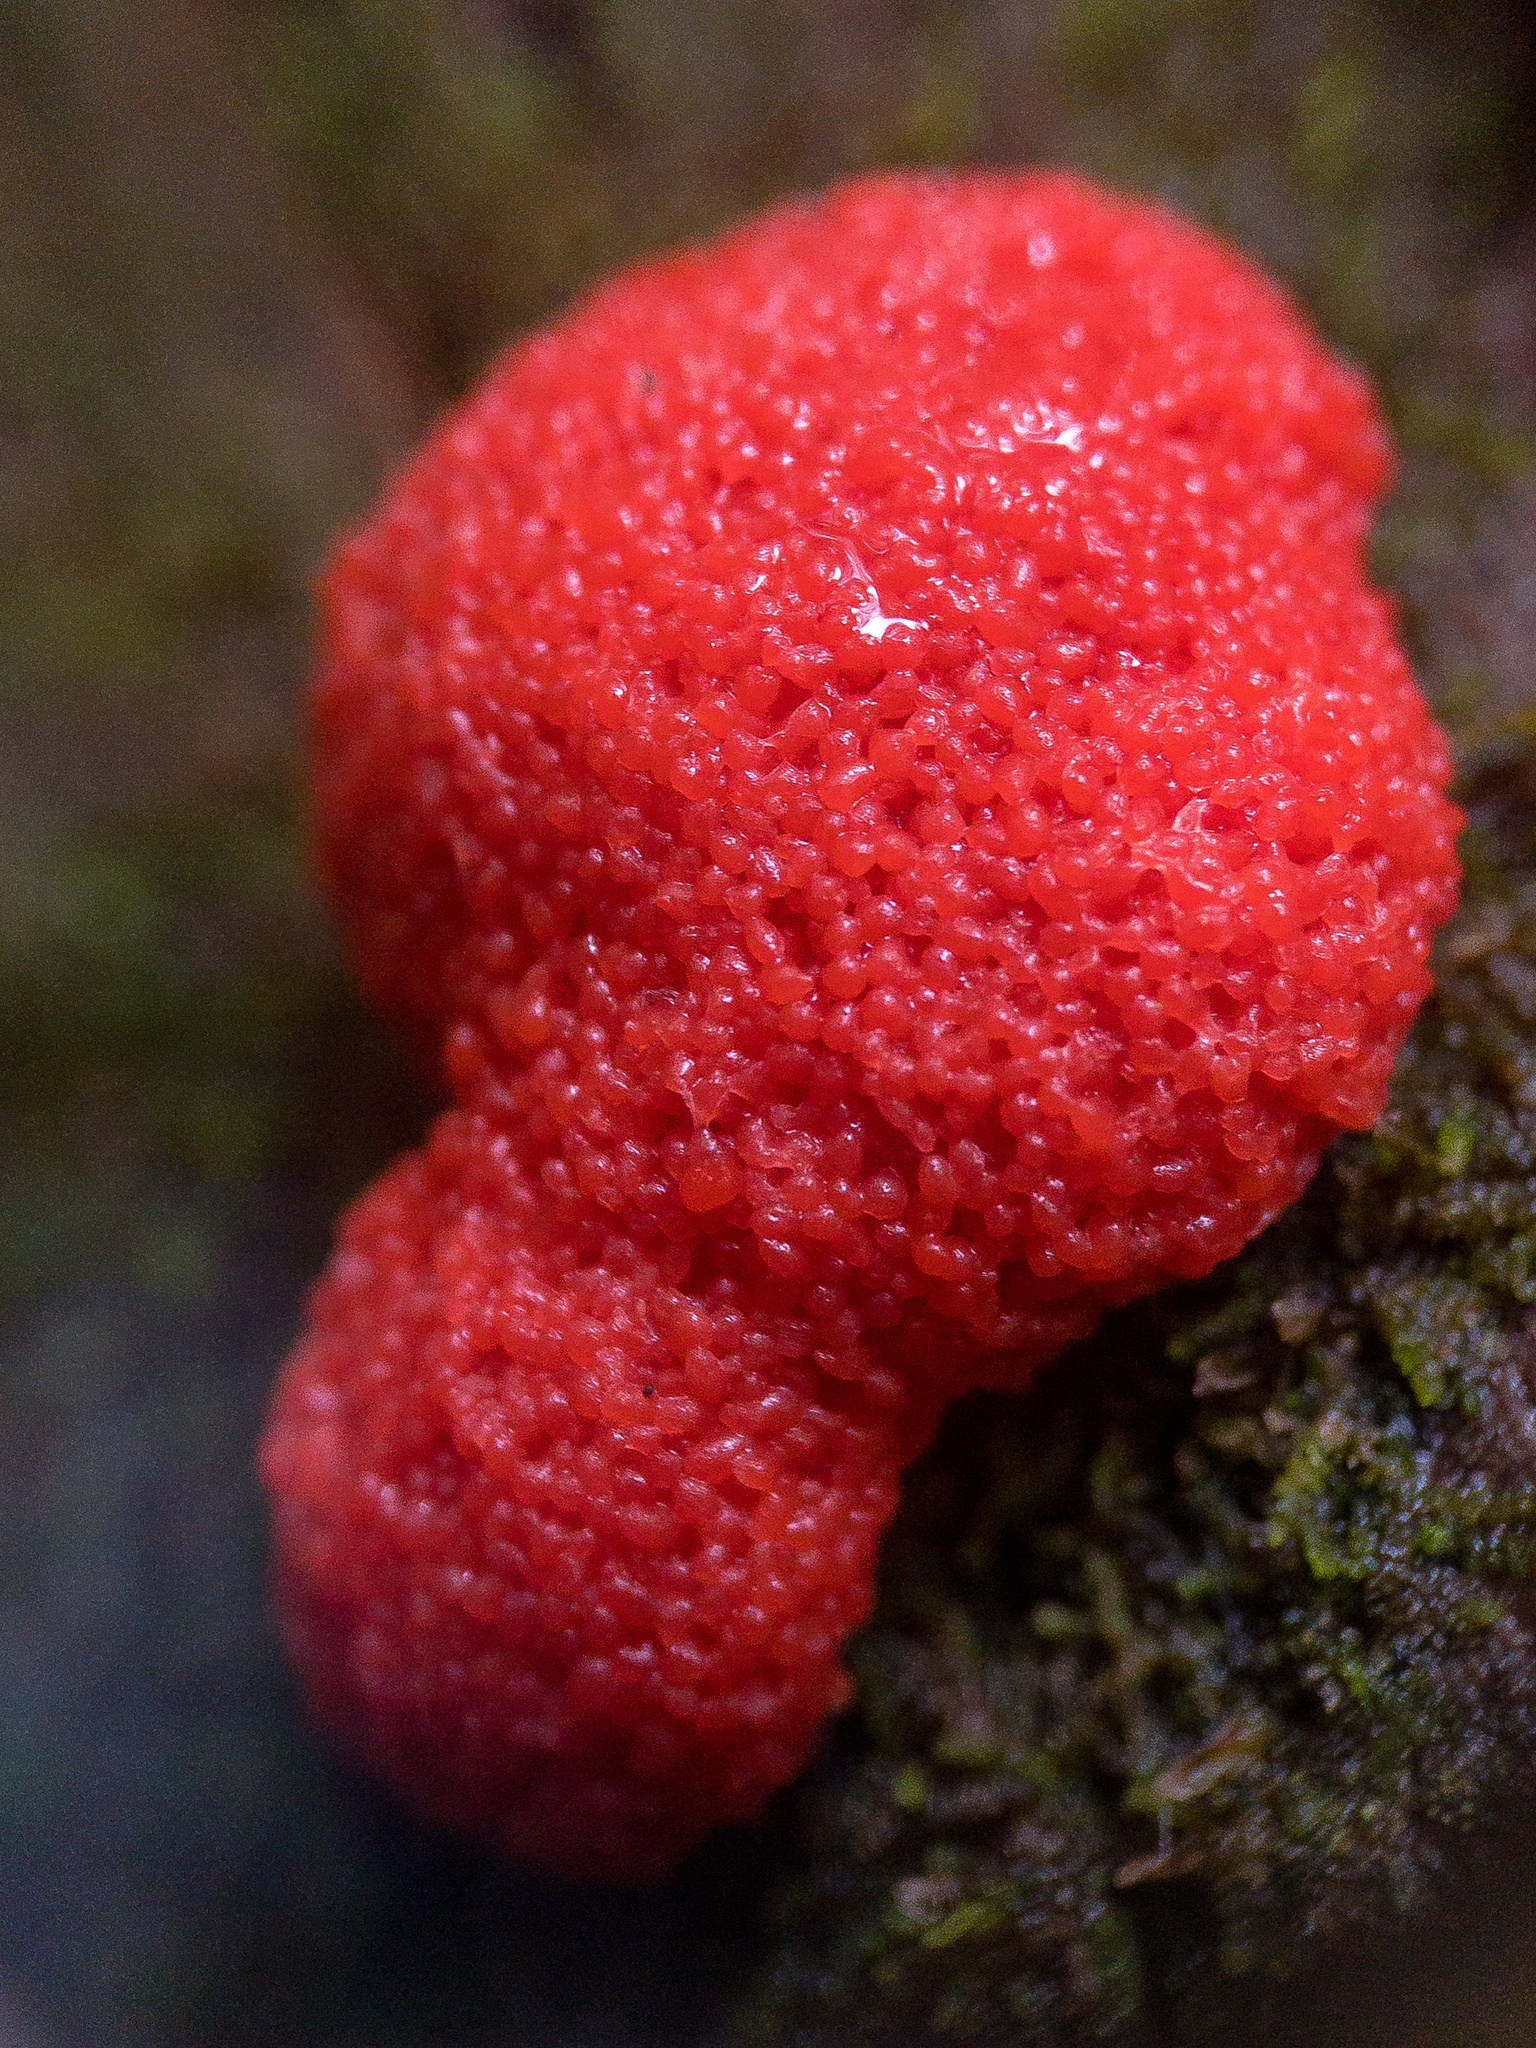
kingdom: Protozoa
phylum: Mycetozoa
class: Myxomycetes
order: Cribrariales
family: Tubiferaceae
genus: Tubifera
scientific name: Tubifera ferruginosa
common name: Red raspberry slime mold
